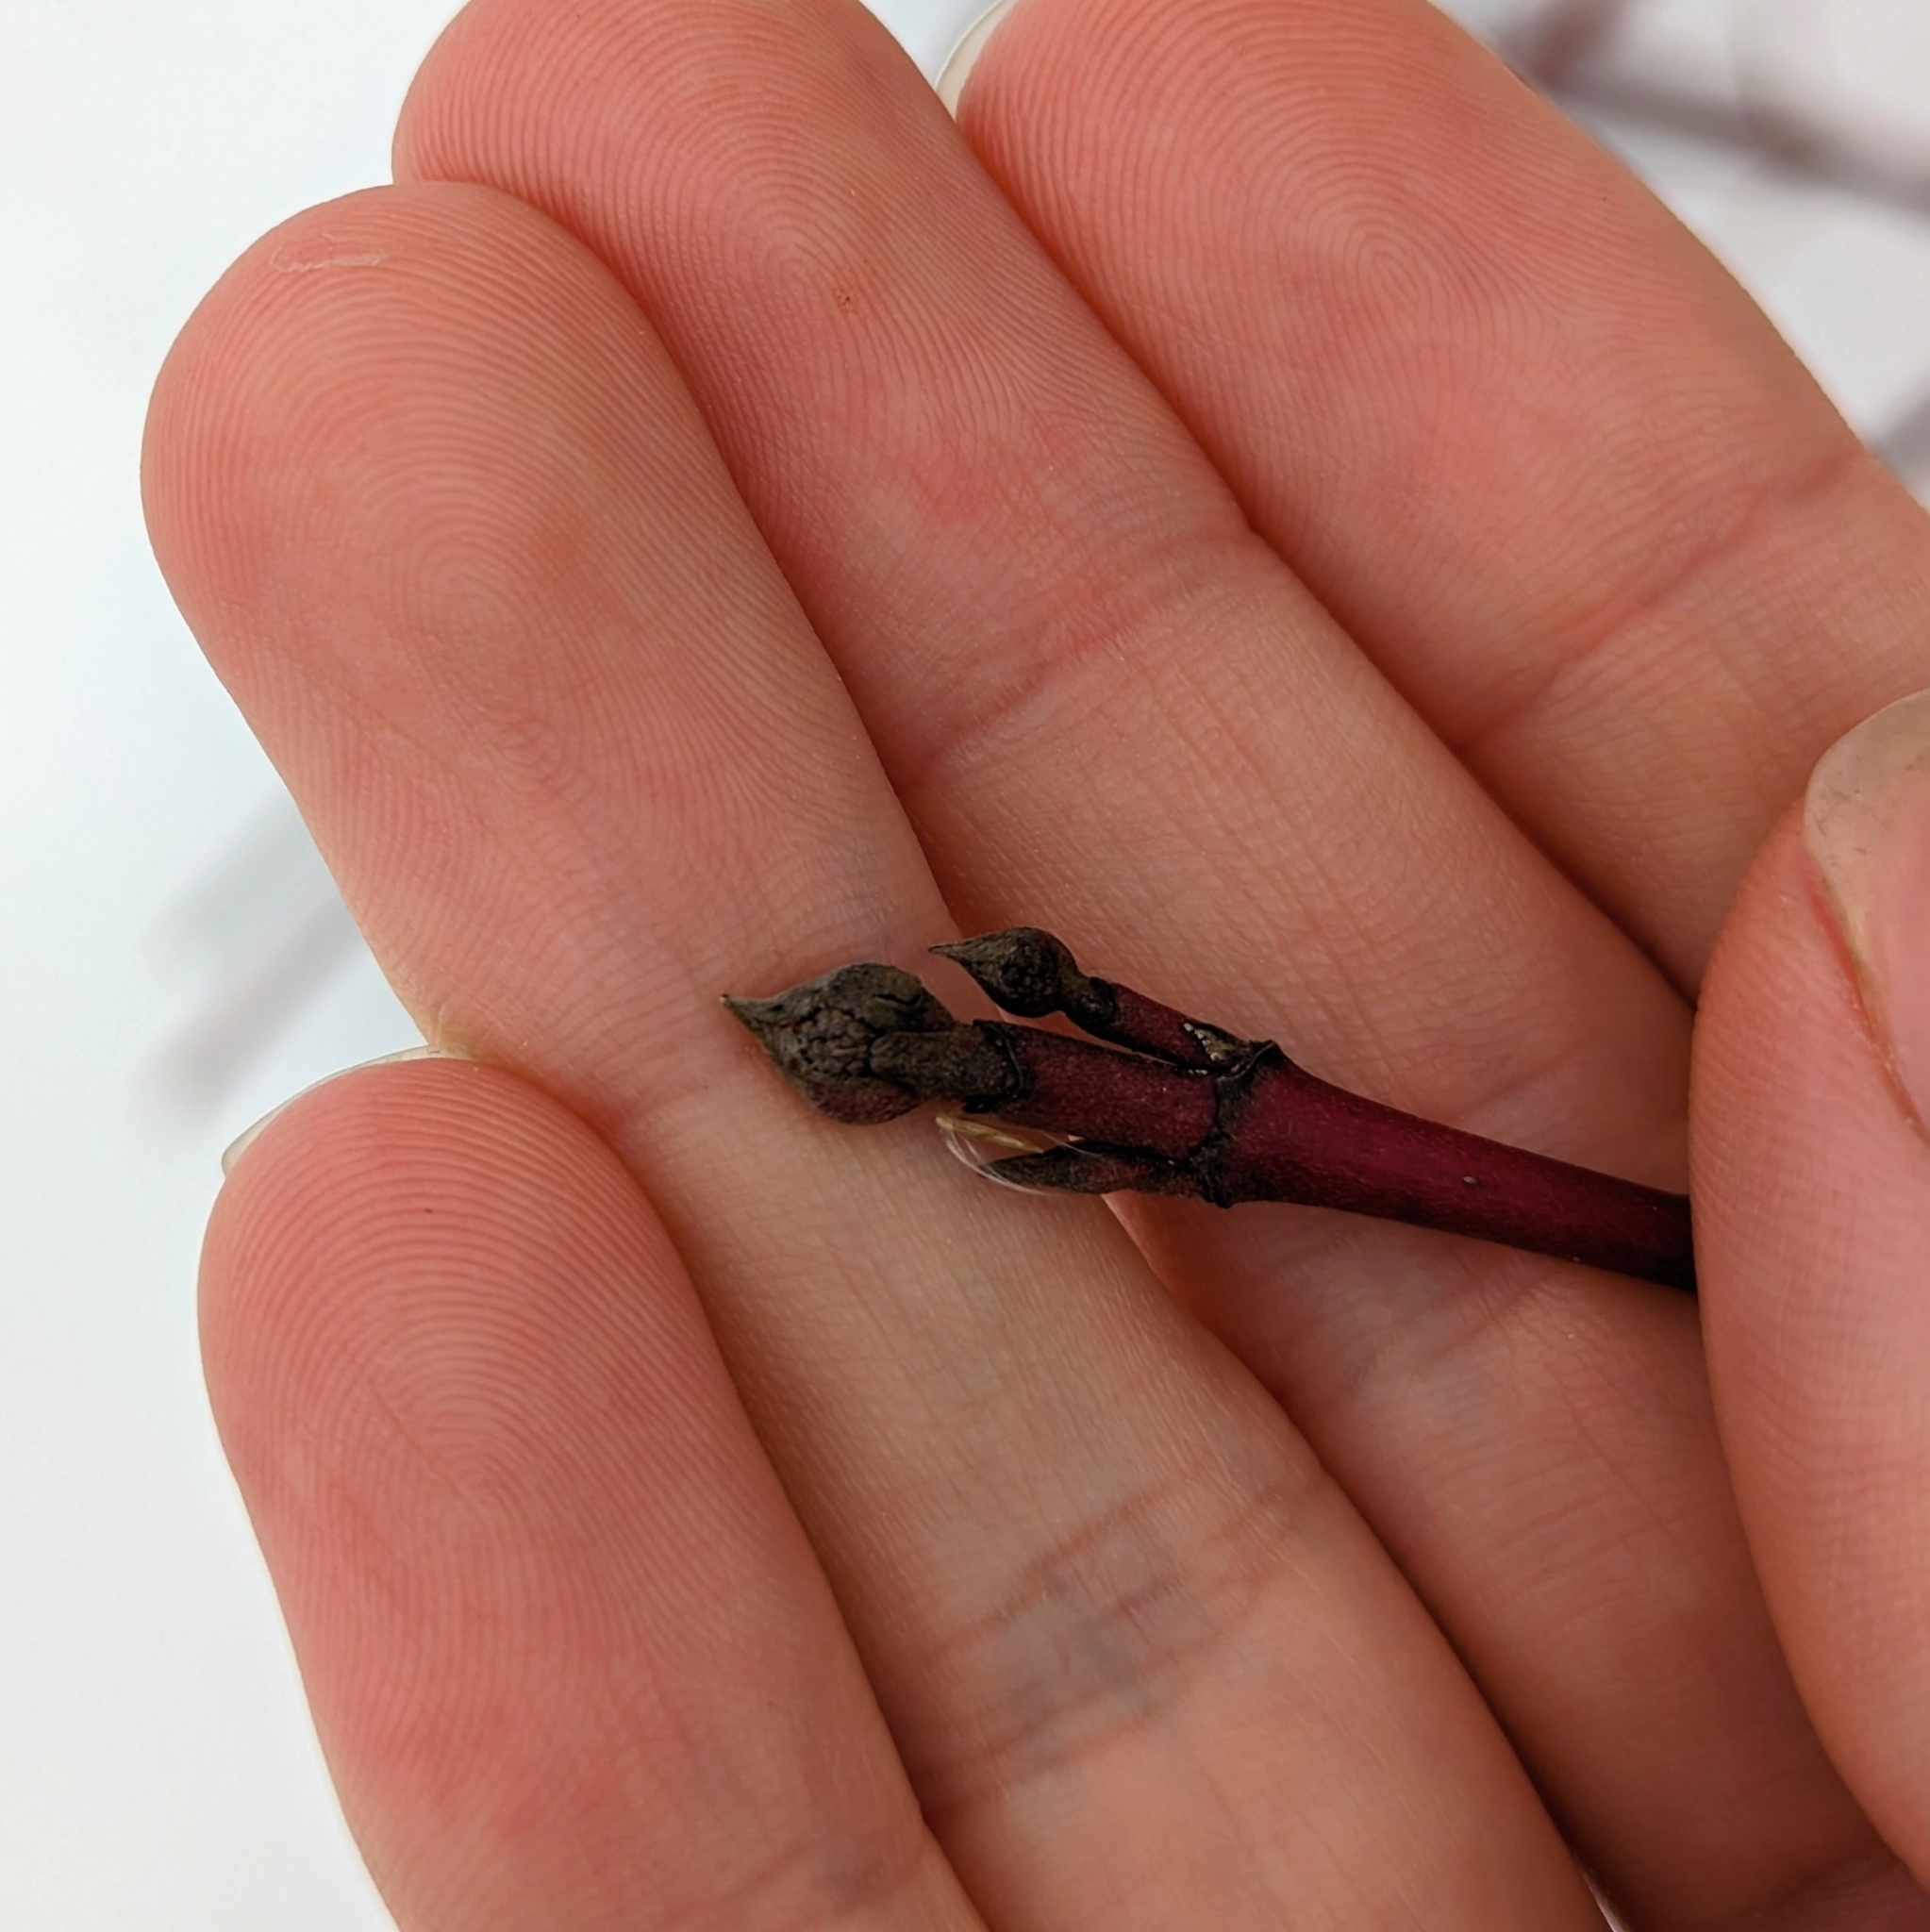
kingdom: Plantae
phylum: Tracheophyta
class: Magnoliopsida
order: Cornales
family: Cornaceae
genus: Cornus
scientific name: Cornus sericea
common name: Red-osier dogwood
